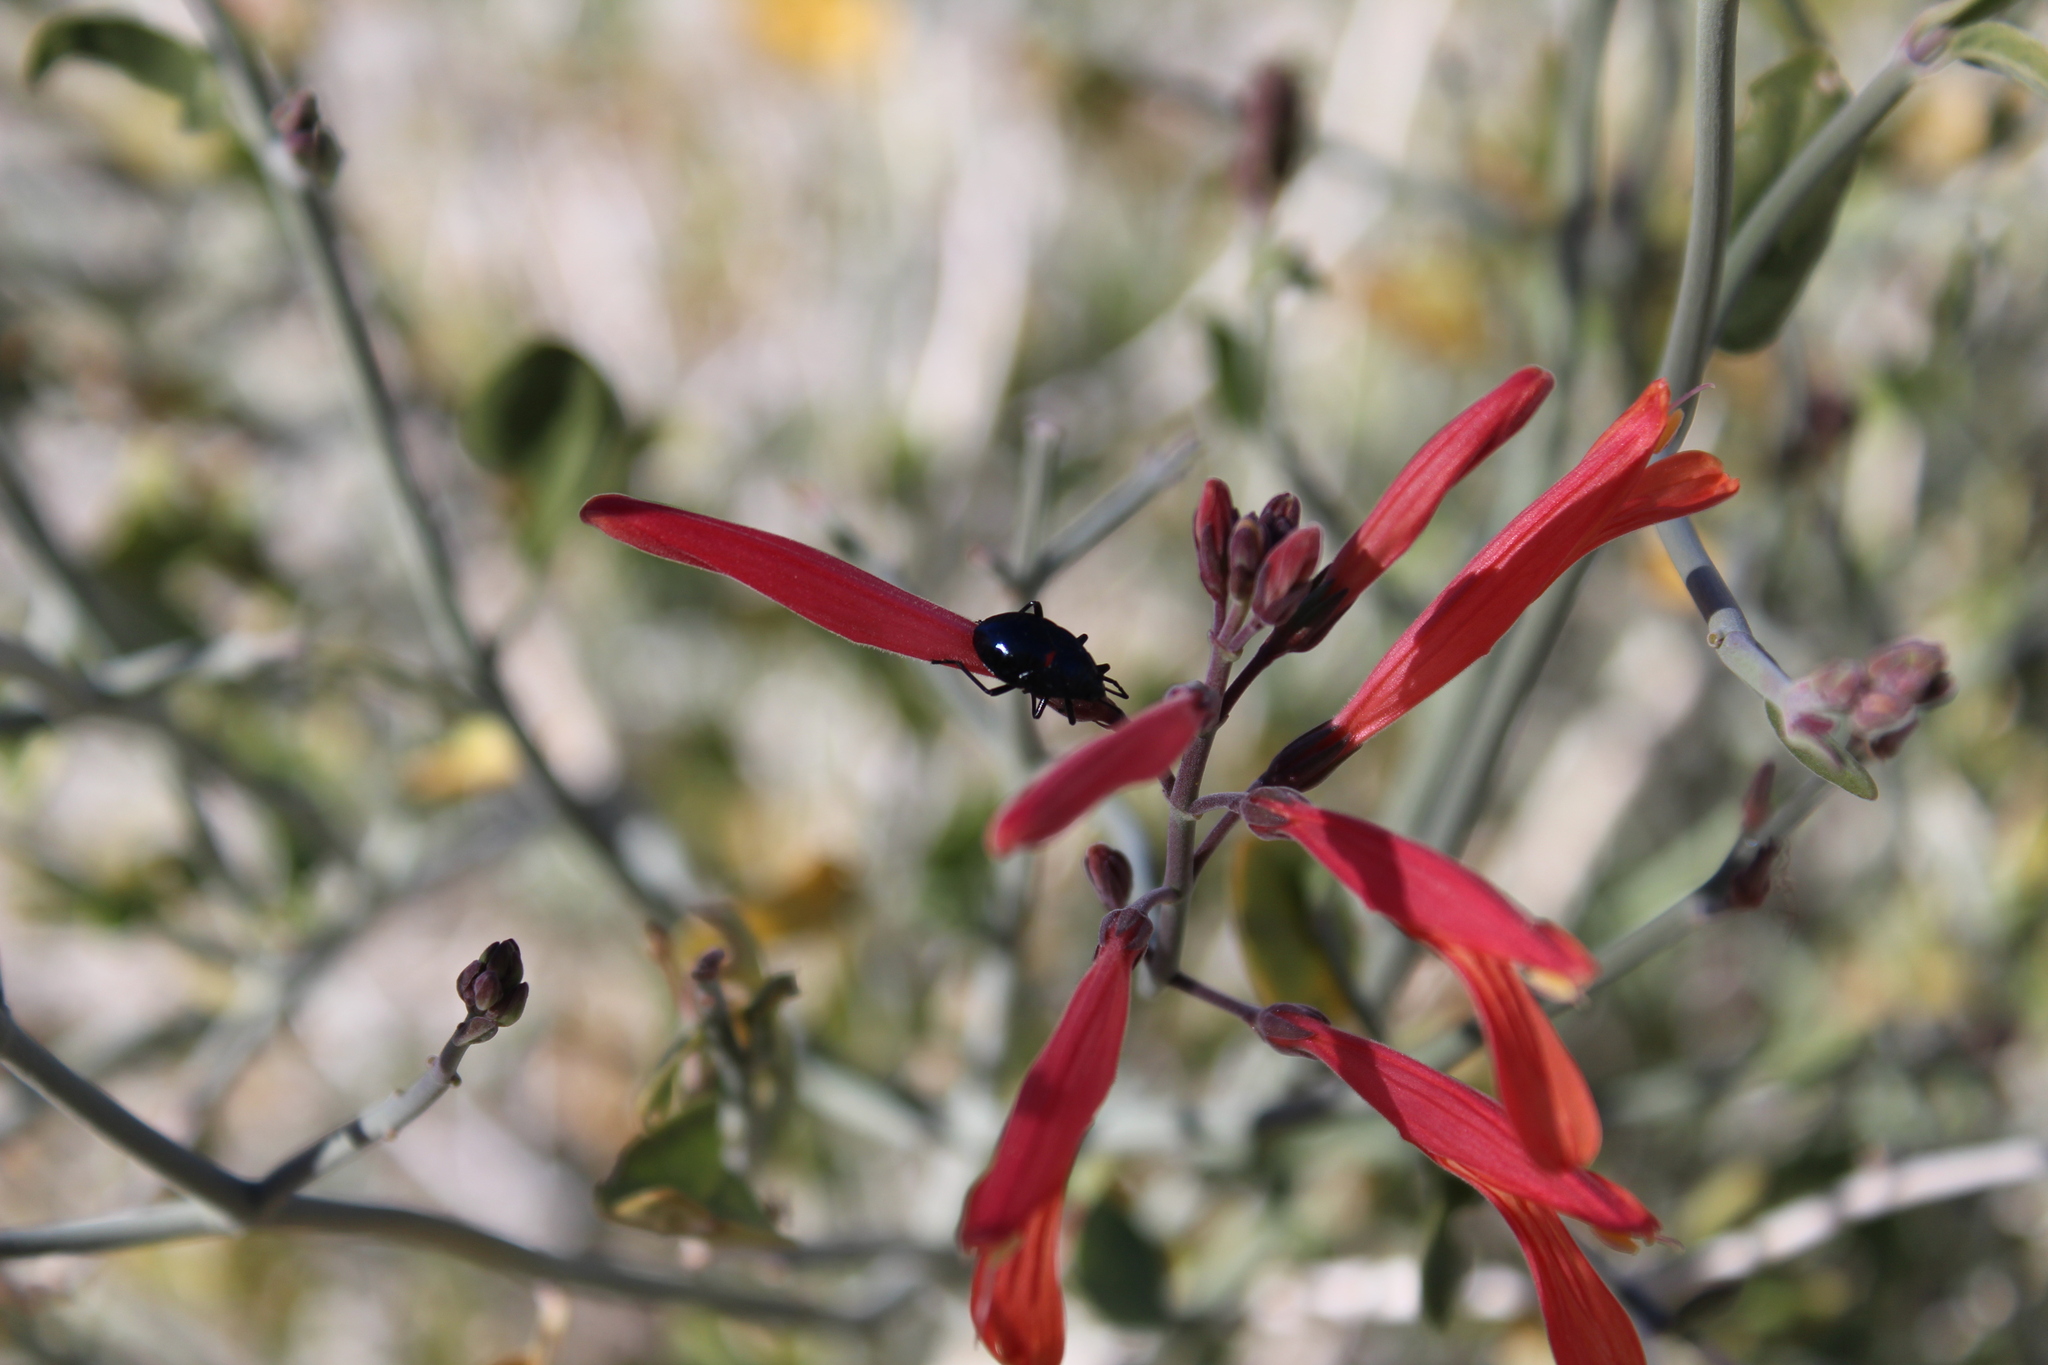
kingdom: Plantae
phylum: Tracheophyta
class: Magnoliopsida
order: Lamiales
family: Acanthaceae
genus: Justicia
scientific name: Justicia californica
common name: Chuparosa-honeysuckle
